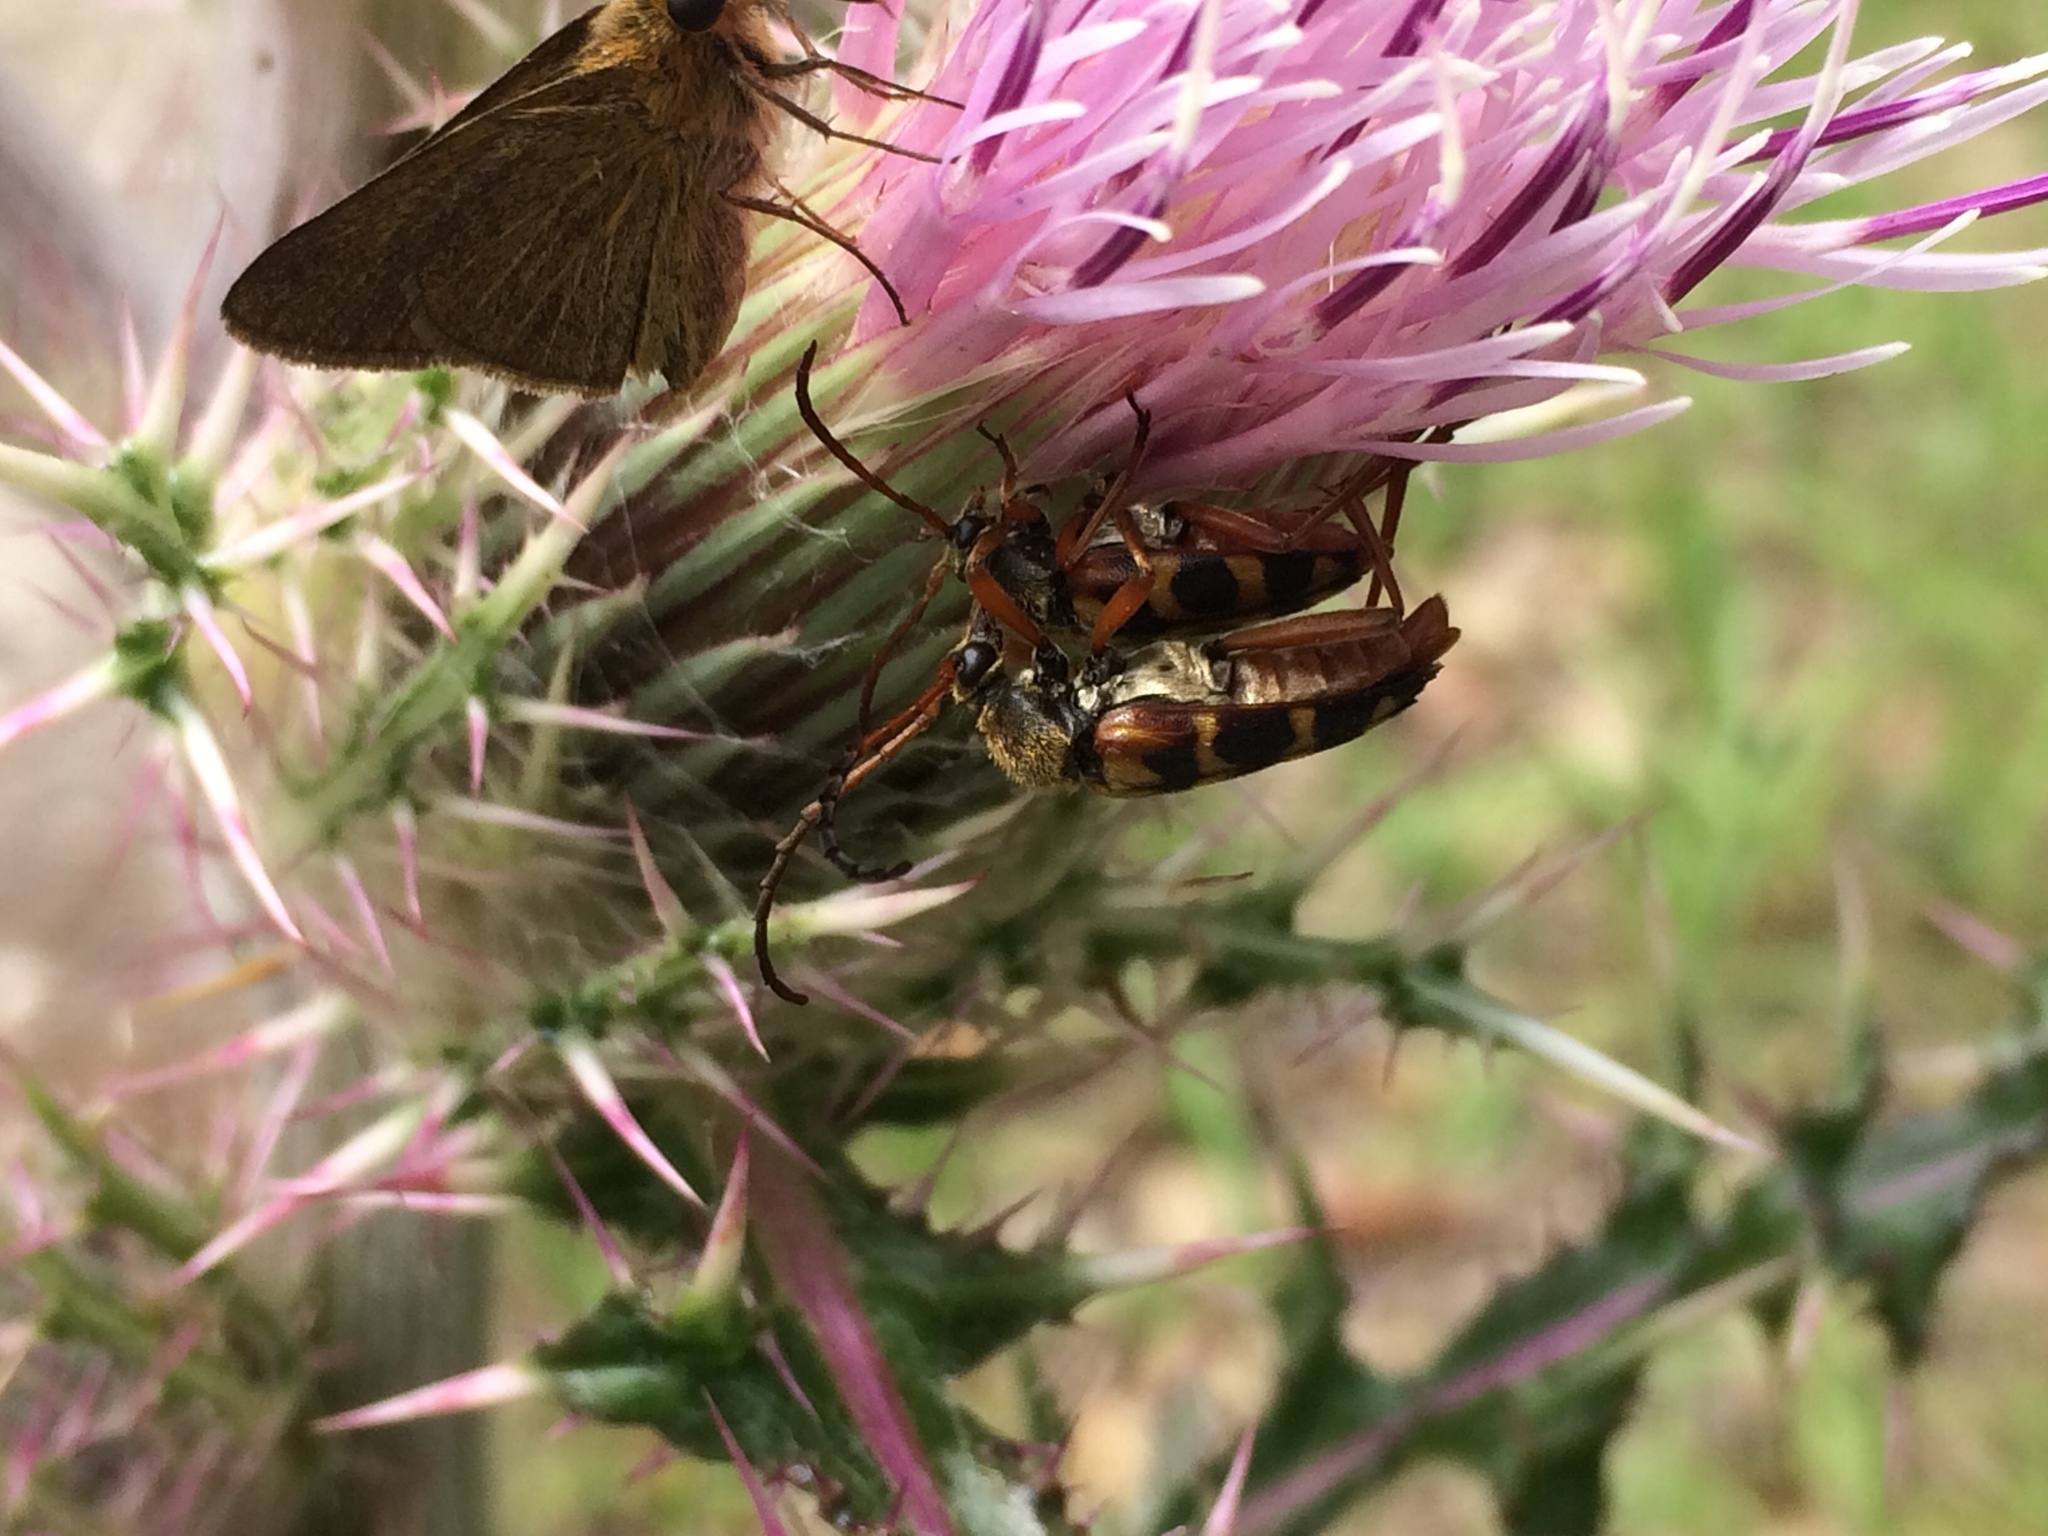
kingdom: Animalia
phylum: Arthropoda
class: Insecta
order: Coleoptera
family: Cerambycidae
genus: Typocerus
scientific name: Typocerus sinuatus
